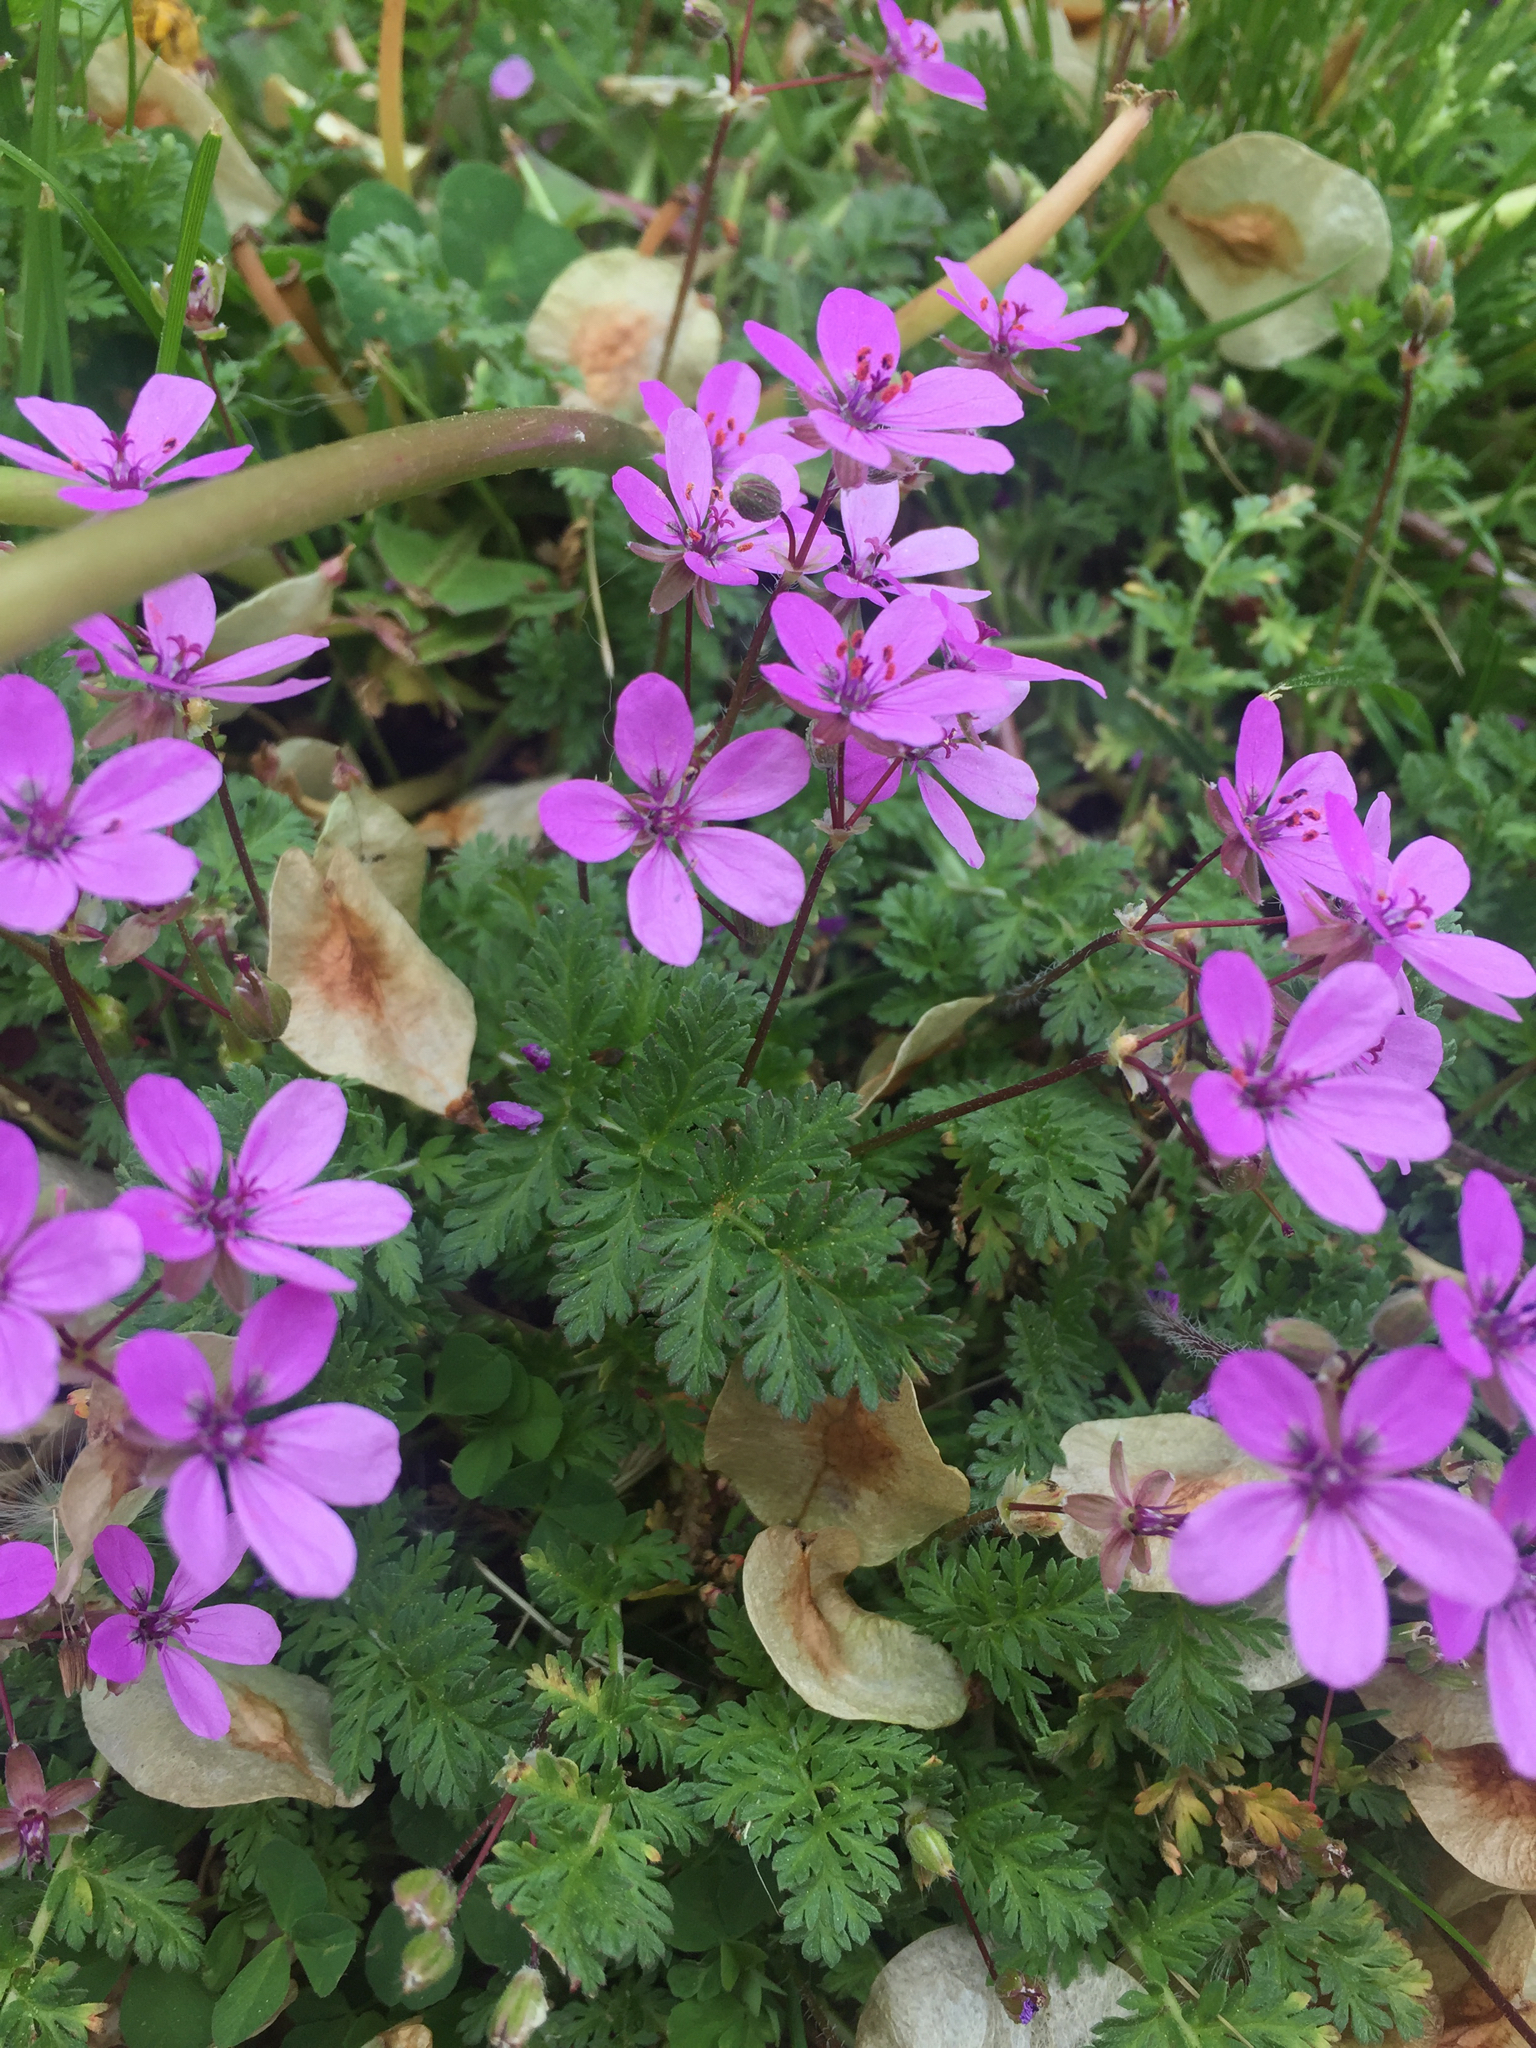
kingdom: Plantae
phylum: Tracheophyta
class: Magnoliopsida
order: Geraniales
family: Geraniaceae
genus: Erodium
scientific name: Erodium cicutarium
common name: Common stork's-bill
